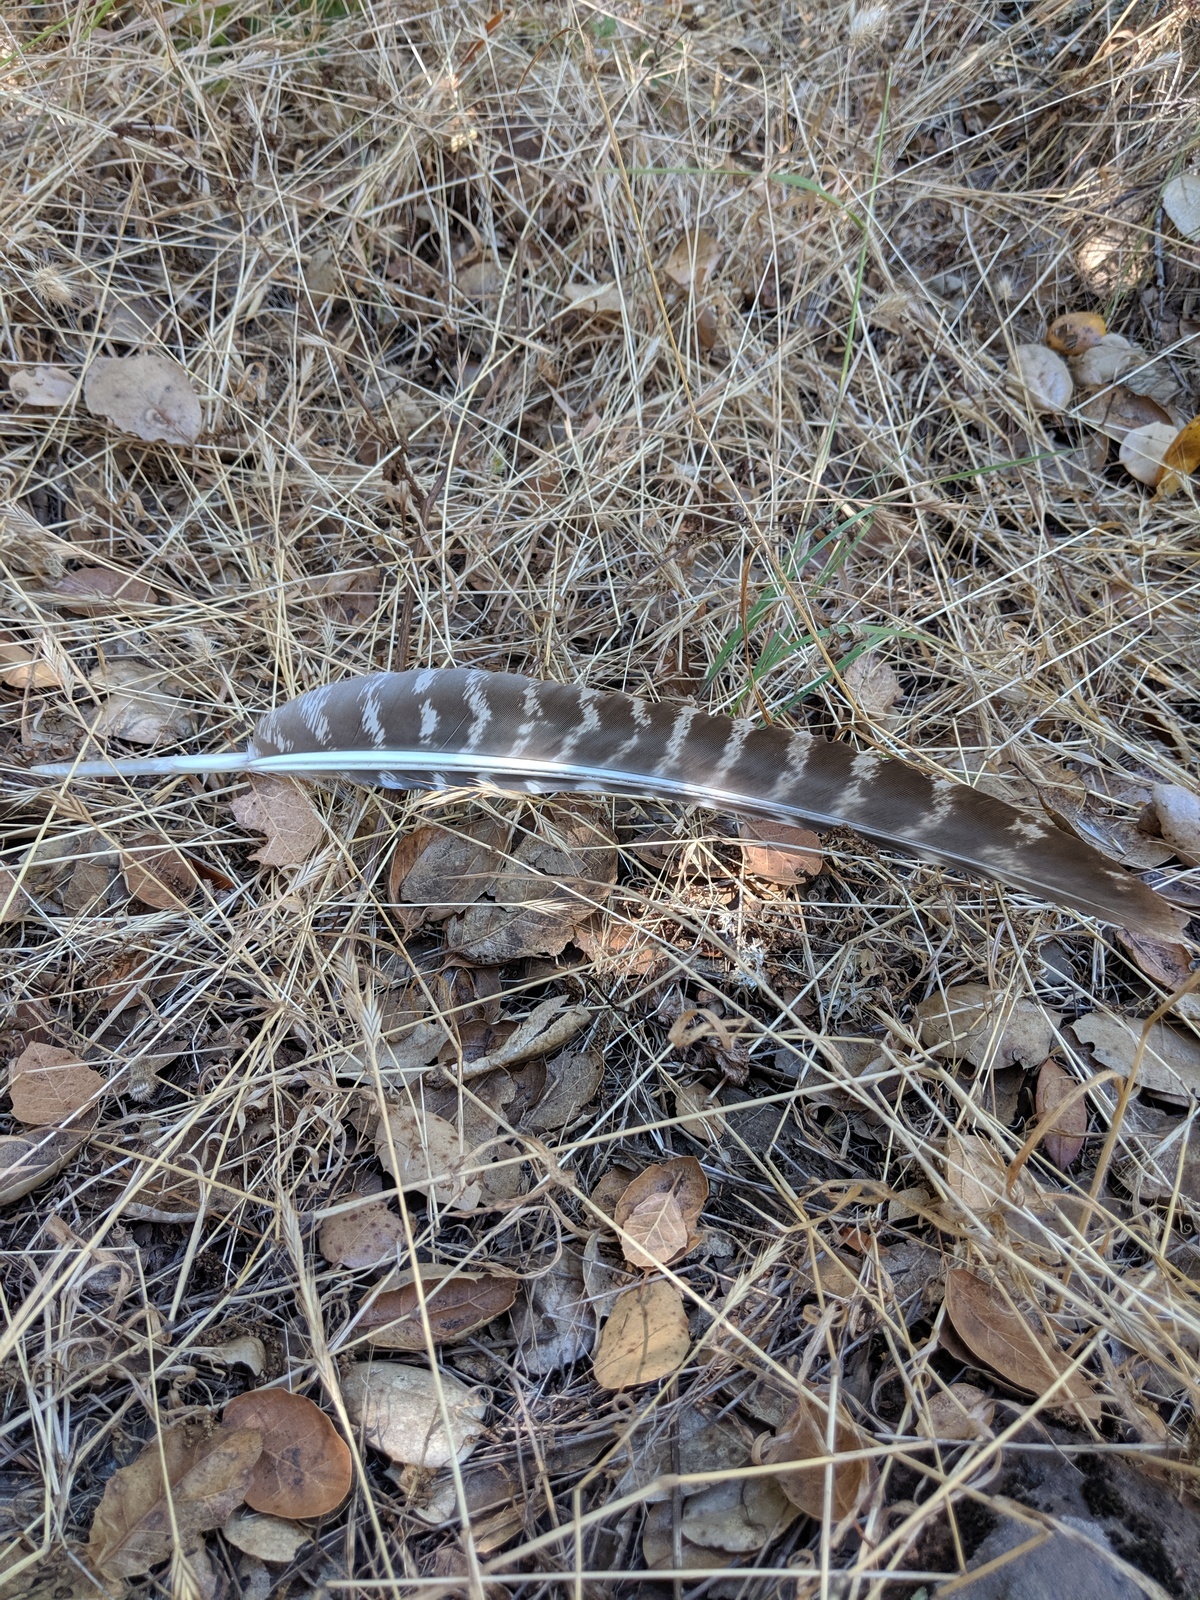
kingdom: Animalia
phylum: Chordata
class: Aves
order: Galliformes
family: Phasianidae
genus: Meleagris
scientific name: Meleagris gallopavo
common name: Wild turkey
